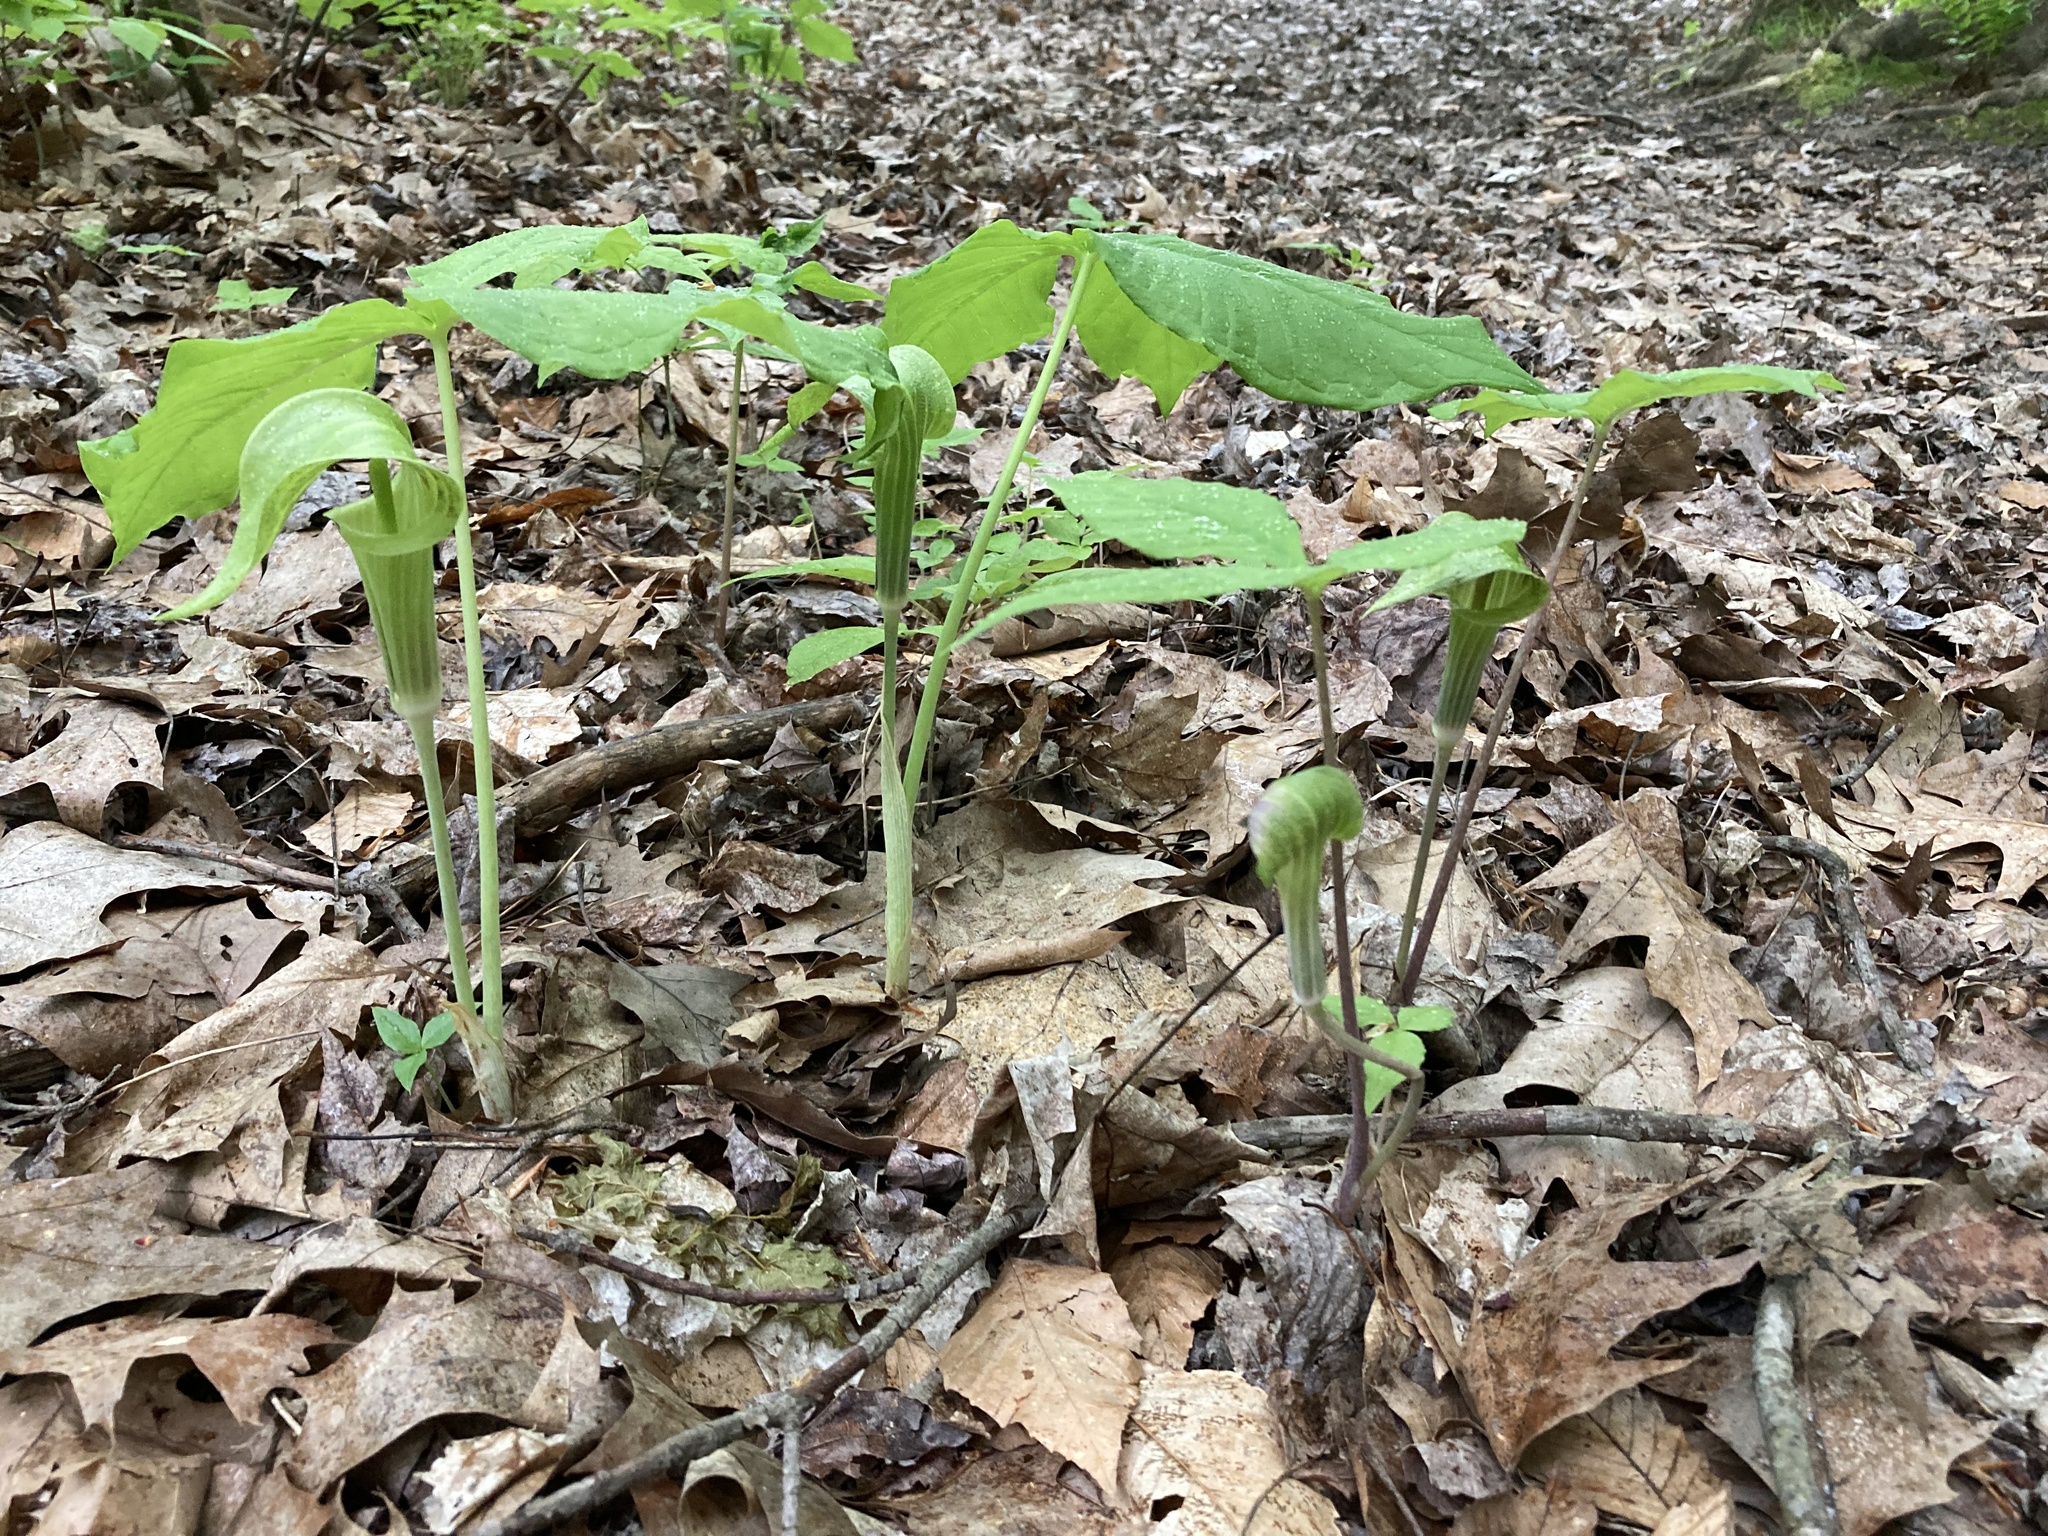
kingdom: Plantae
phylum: Tracheophyta
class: Liliopsida
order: Alismatales
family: Araceae
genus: Arisaema
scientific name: Arisaema triphyllum
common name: Jack-in-the-pulpit
